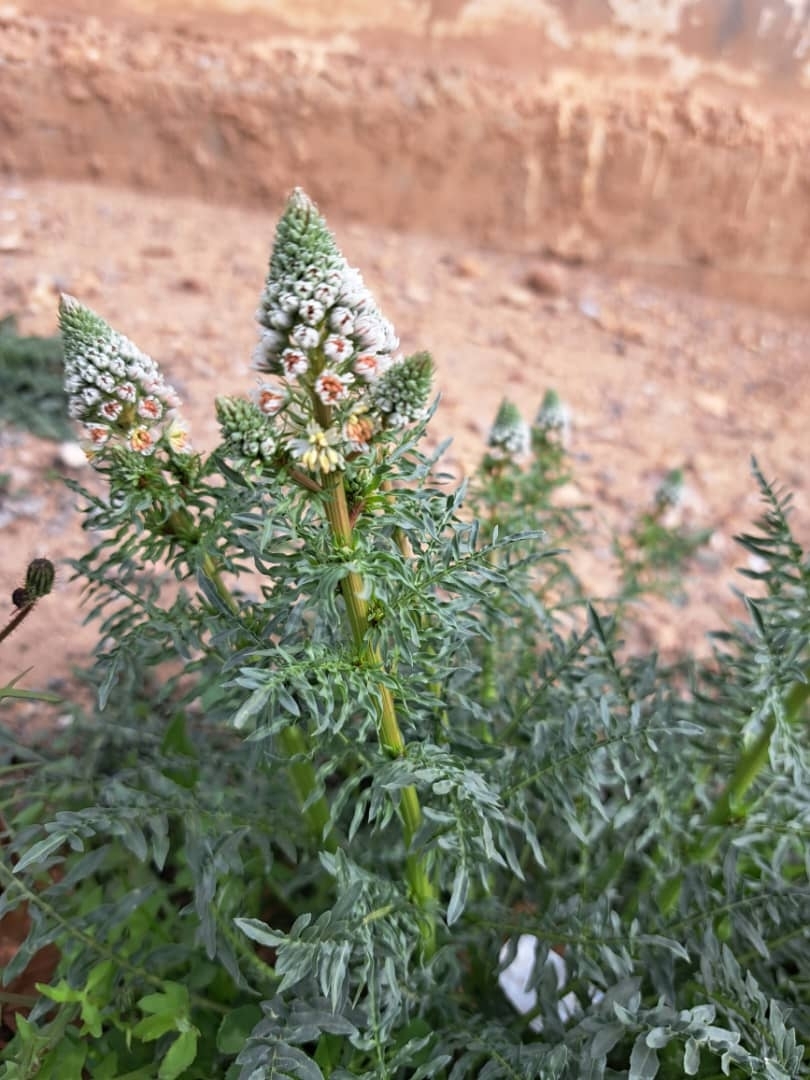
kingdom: Plantae
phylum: Tracheophyta
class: Magnoliopsida
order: Brassicales
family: Resedaceae
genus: Reseda
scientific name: Reseda alba
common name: White mignonette
